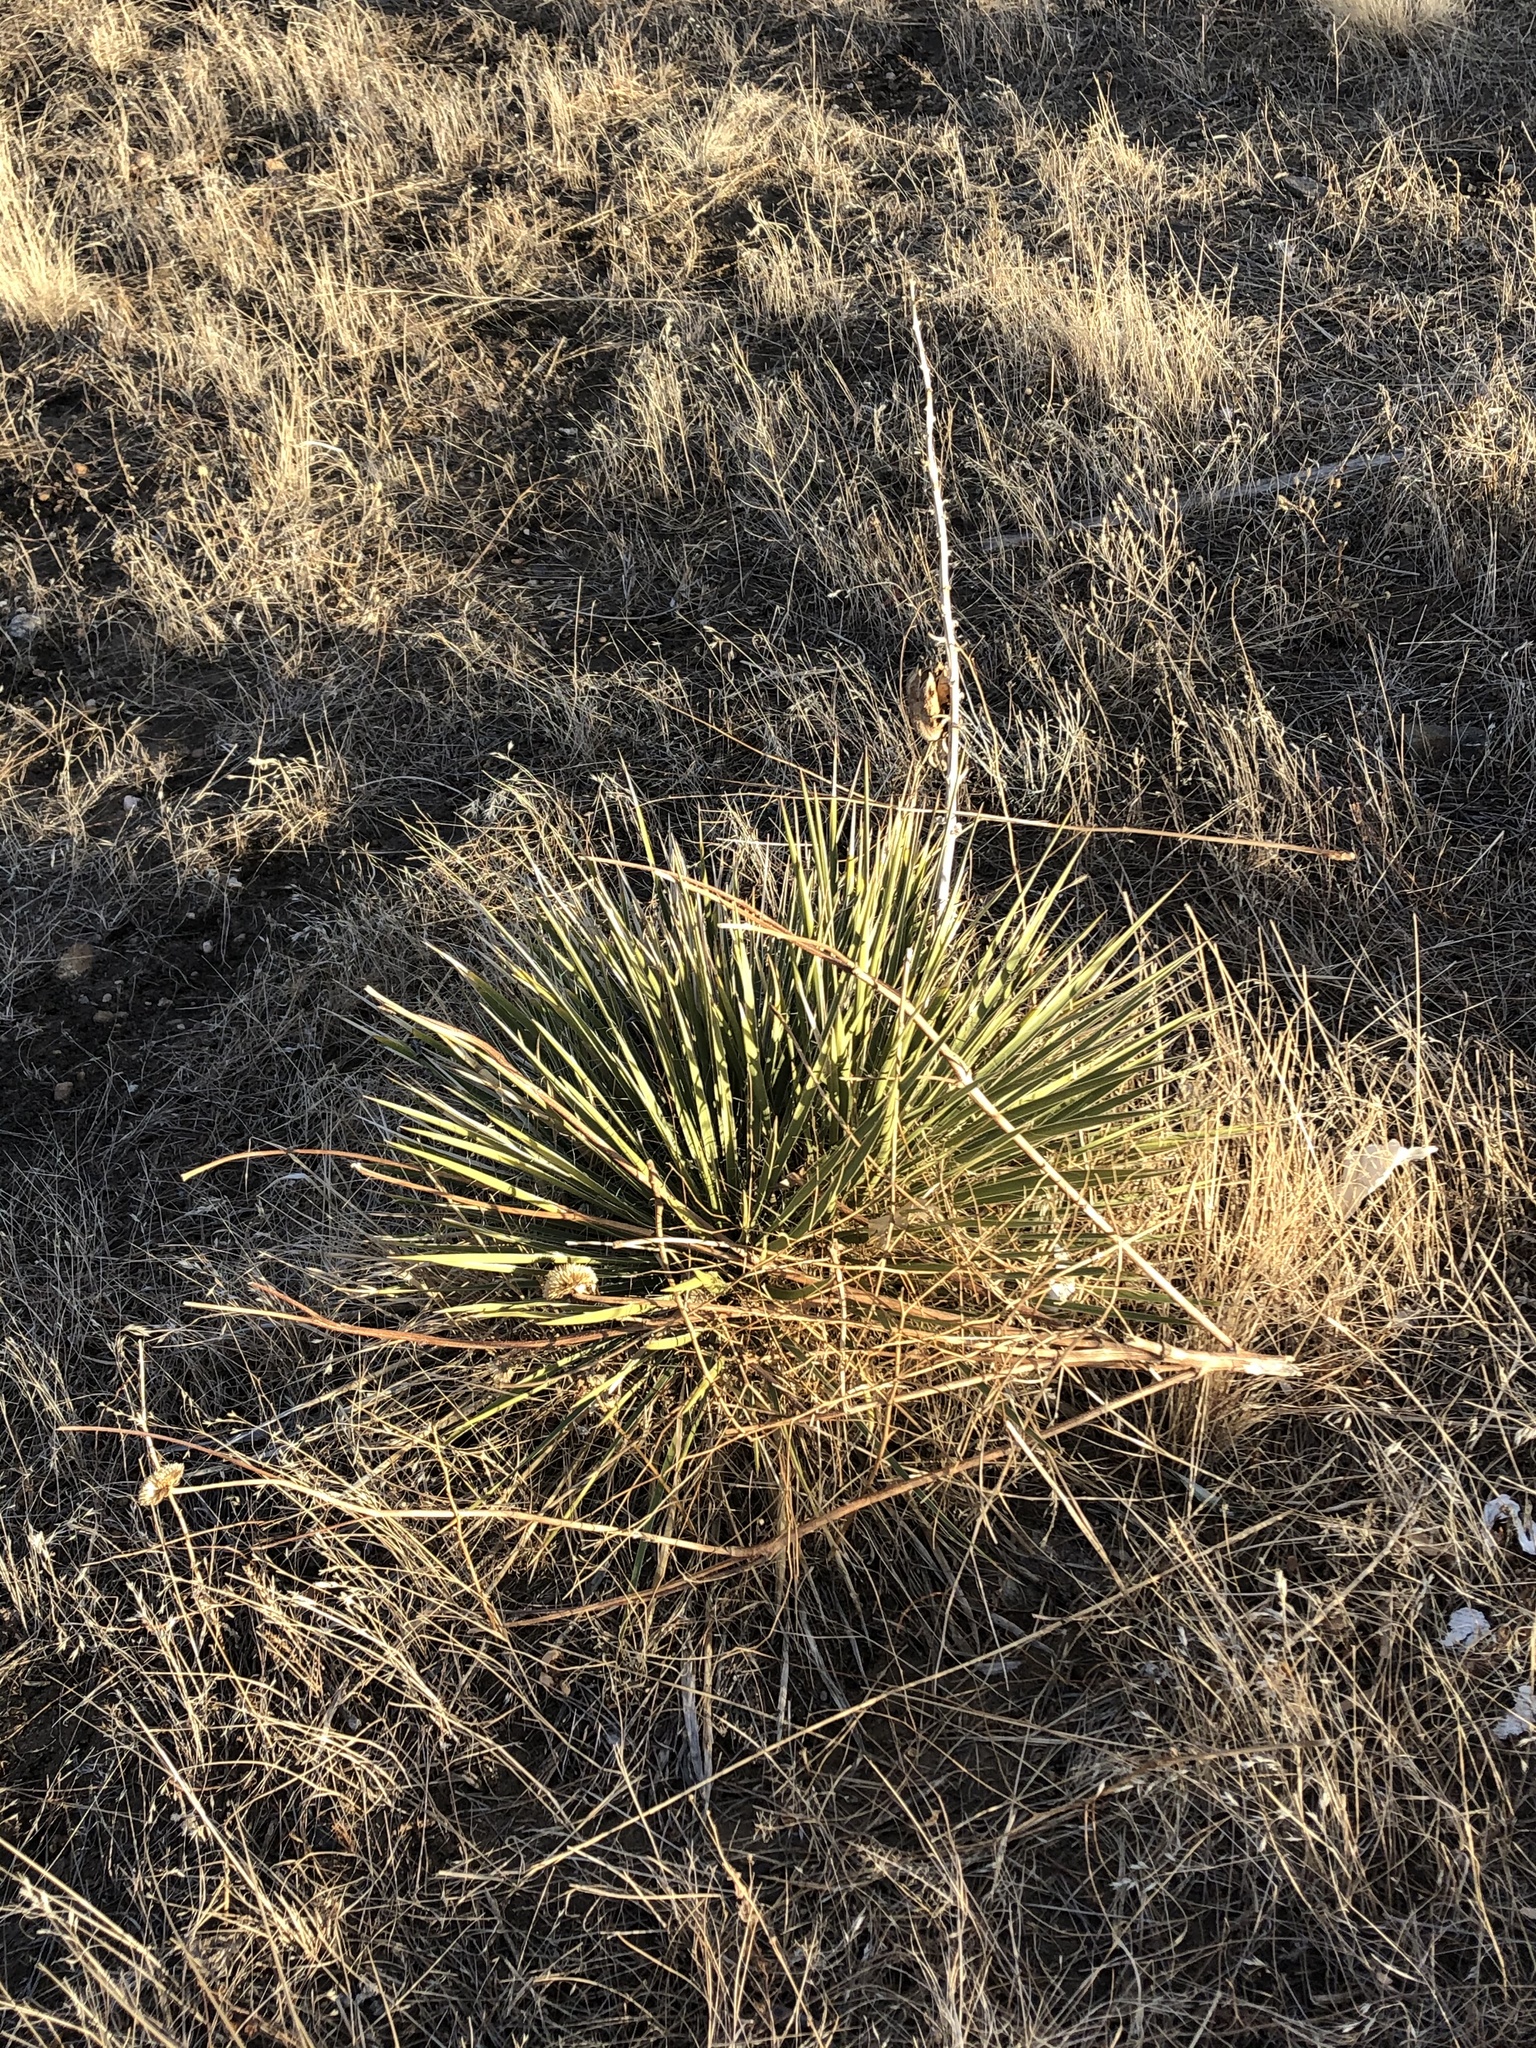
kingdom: Plantae
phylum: Tracheophyta
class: Liliopsida
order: Asparagales
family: Asparagaceae
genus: Yucca
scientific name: Yucca glauca
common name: Great plains yucca
